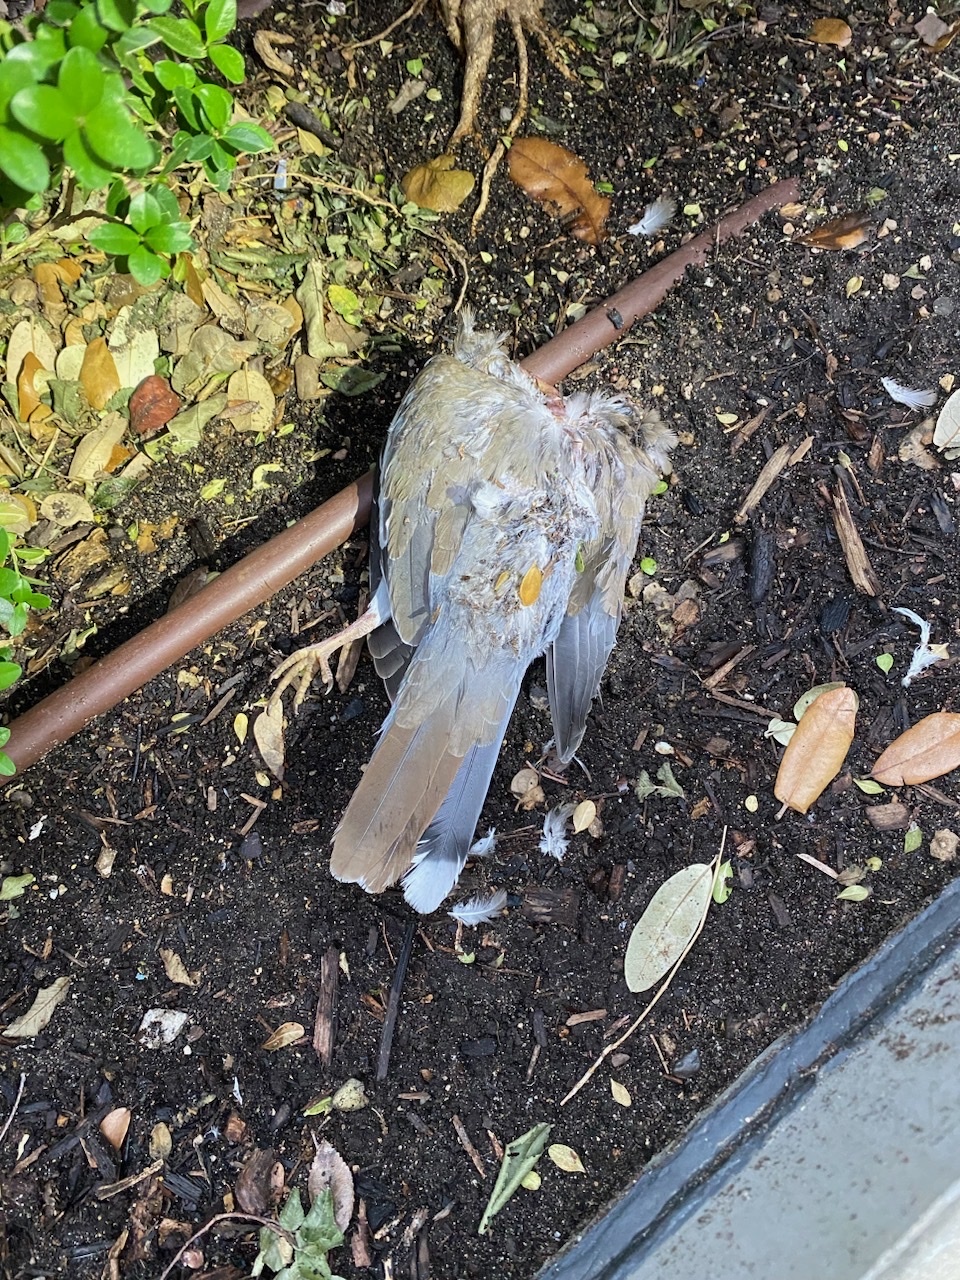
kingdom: Animalia
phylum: Chordata
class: Aves
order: Columbiformes
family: Columbidae
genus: Zenaida
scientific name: Zenaida asiatica
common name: White-winged dove
